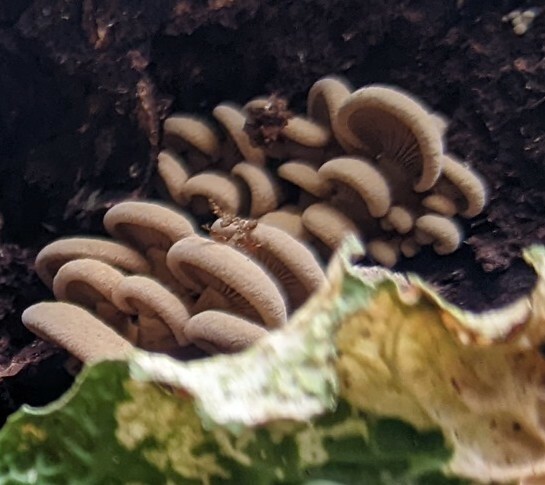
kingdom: Fungi
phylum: Basidiomycota
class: Agaricomycetes
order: Agaricales
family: Mycenaceae
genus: Panellus
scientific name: Panellus stipticus
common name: Bitter oysterling
